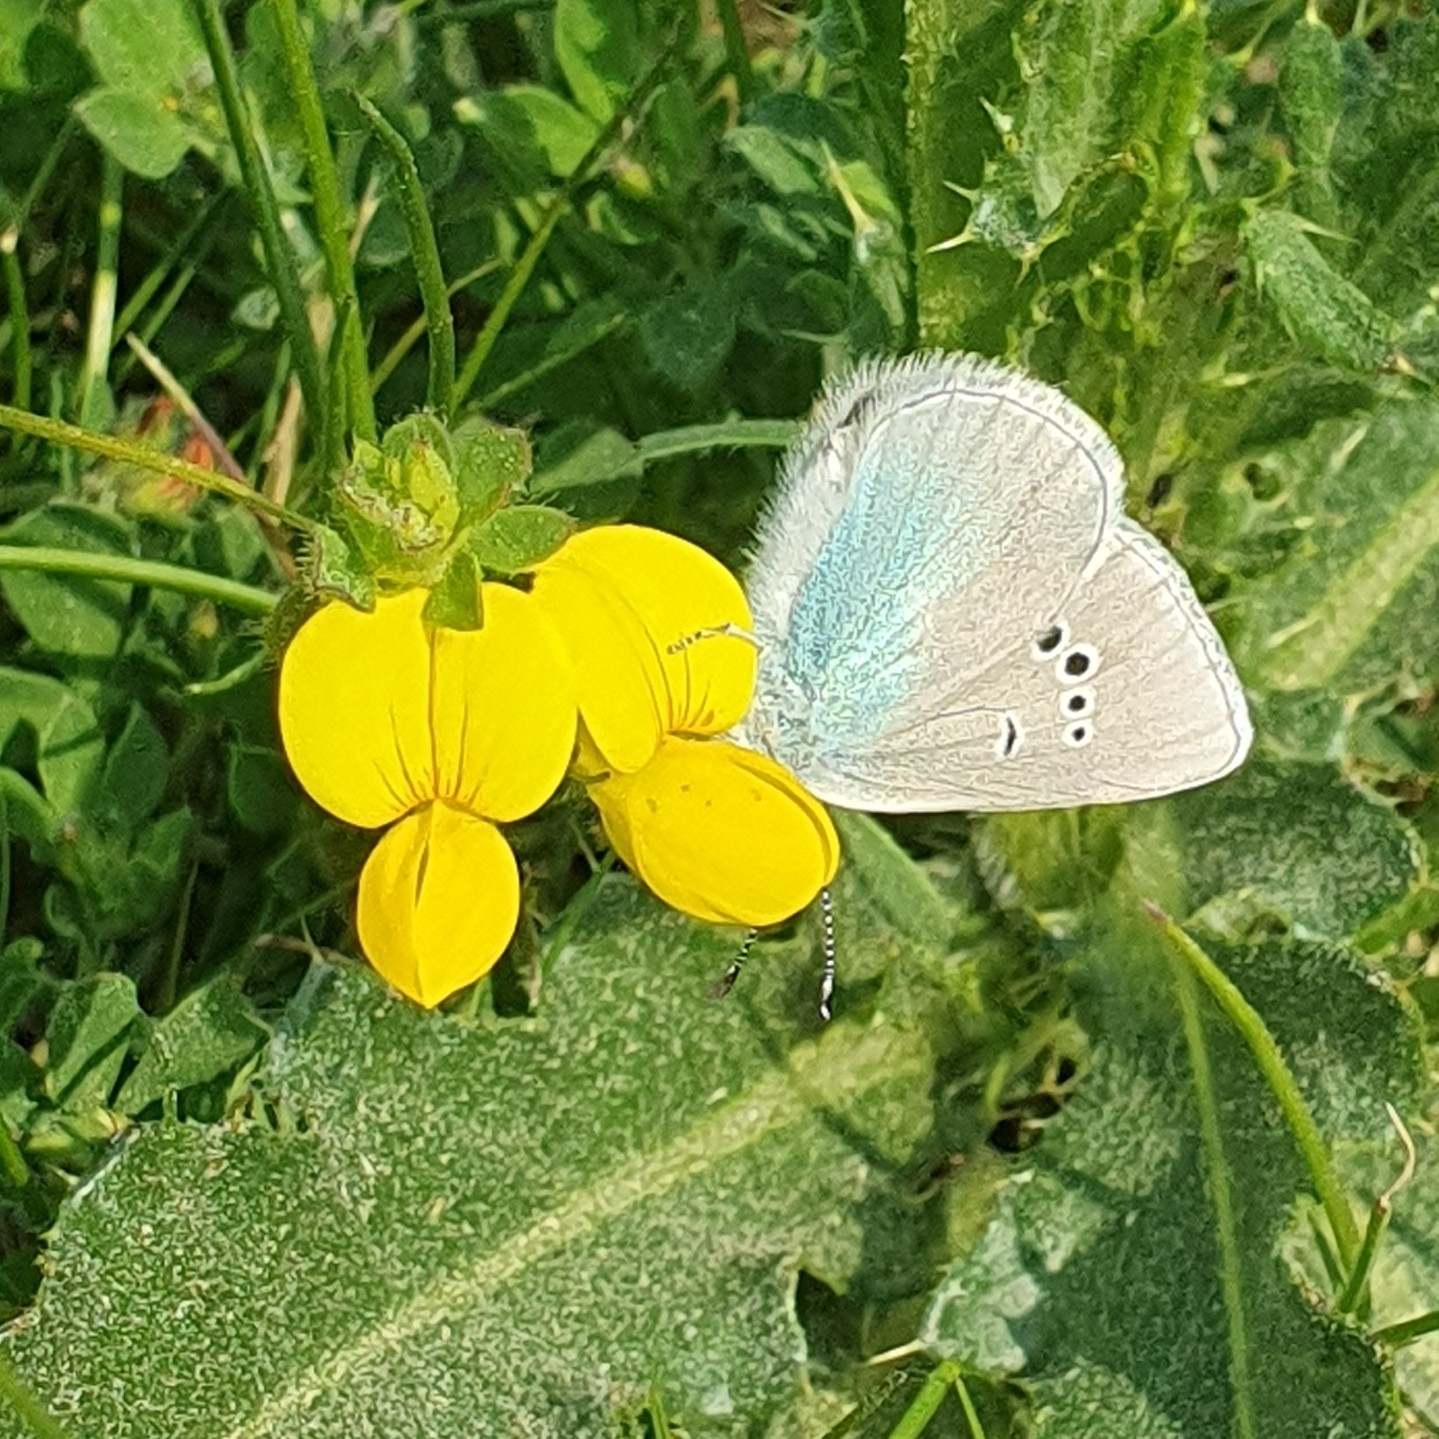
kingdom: Animalia
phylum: Arthropoda
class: Insecta
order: Lepidoptera
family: Lycaenidae
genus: Glaucopsyche
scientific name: Glaucopsyche alexis
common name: Green-underside blue
